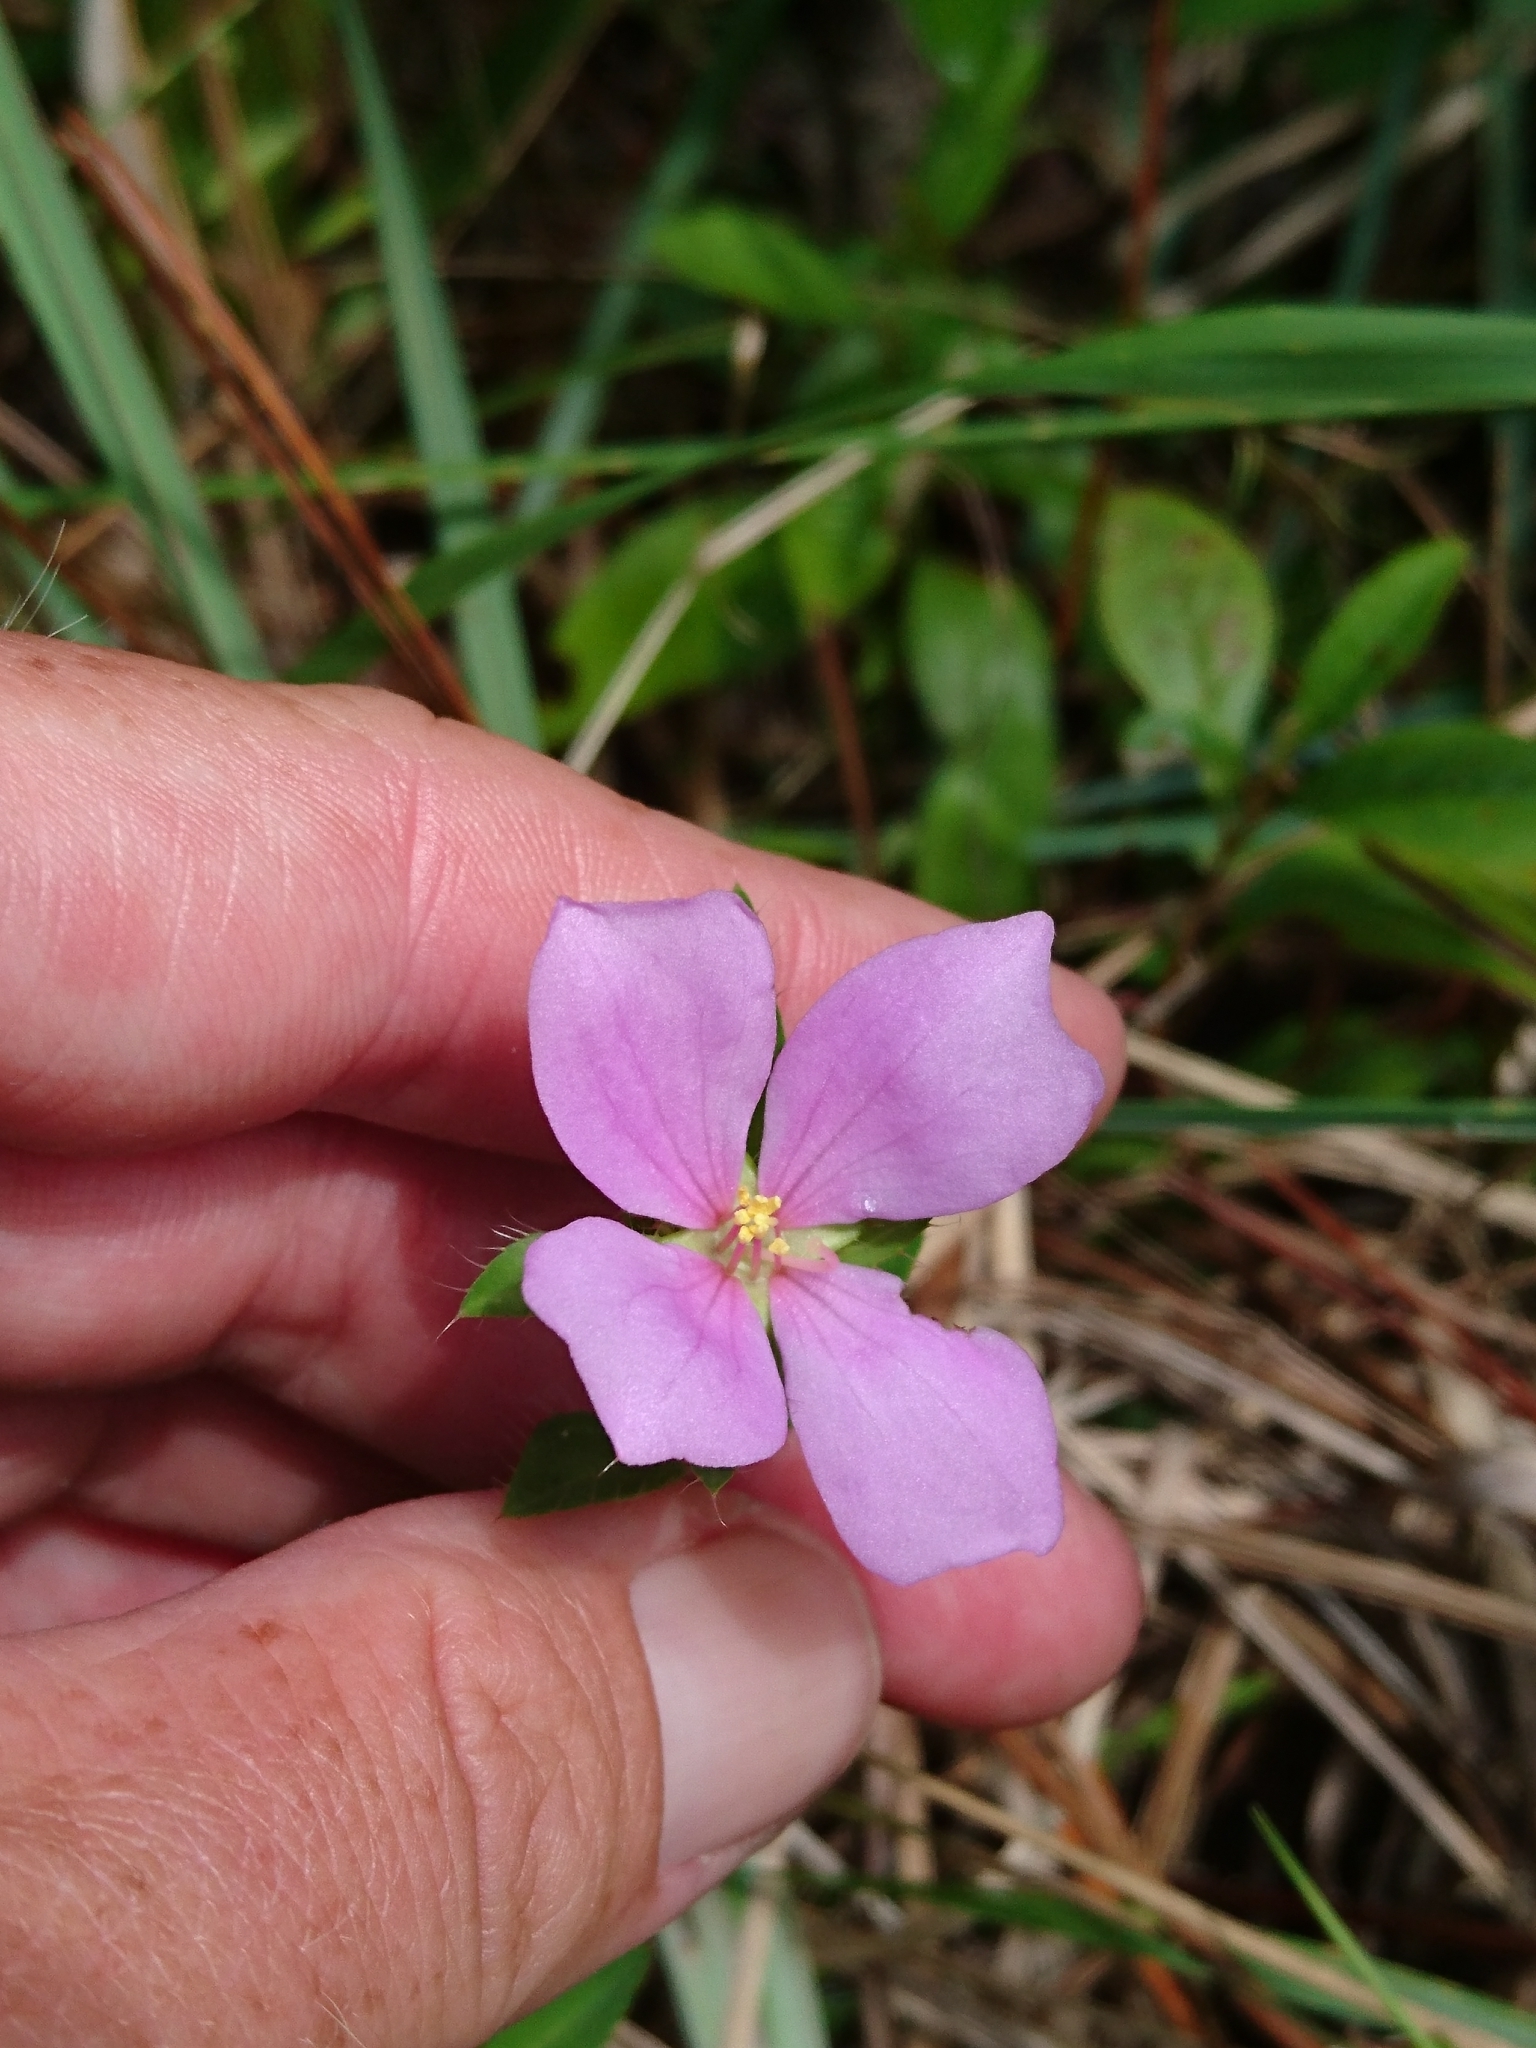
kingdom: Plantae
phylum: Tracheophyta
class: Magnoliopsida
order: Myrtales
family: Melastomataceae
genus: Rhexia
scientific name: Rhexia petiolata
